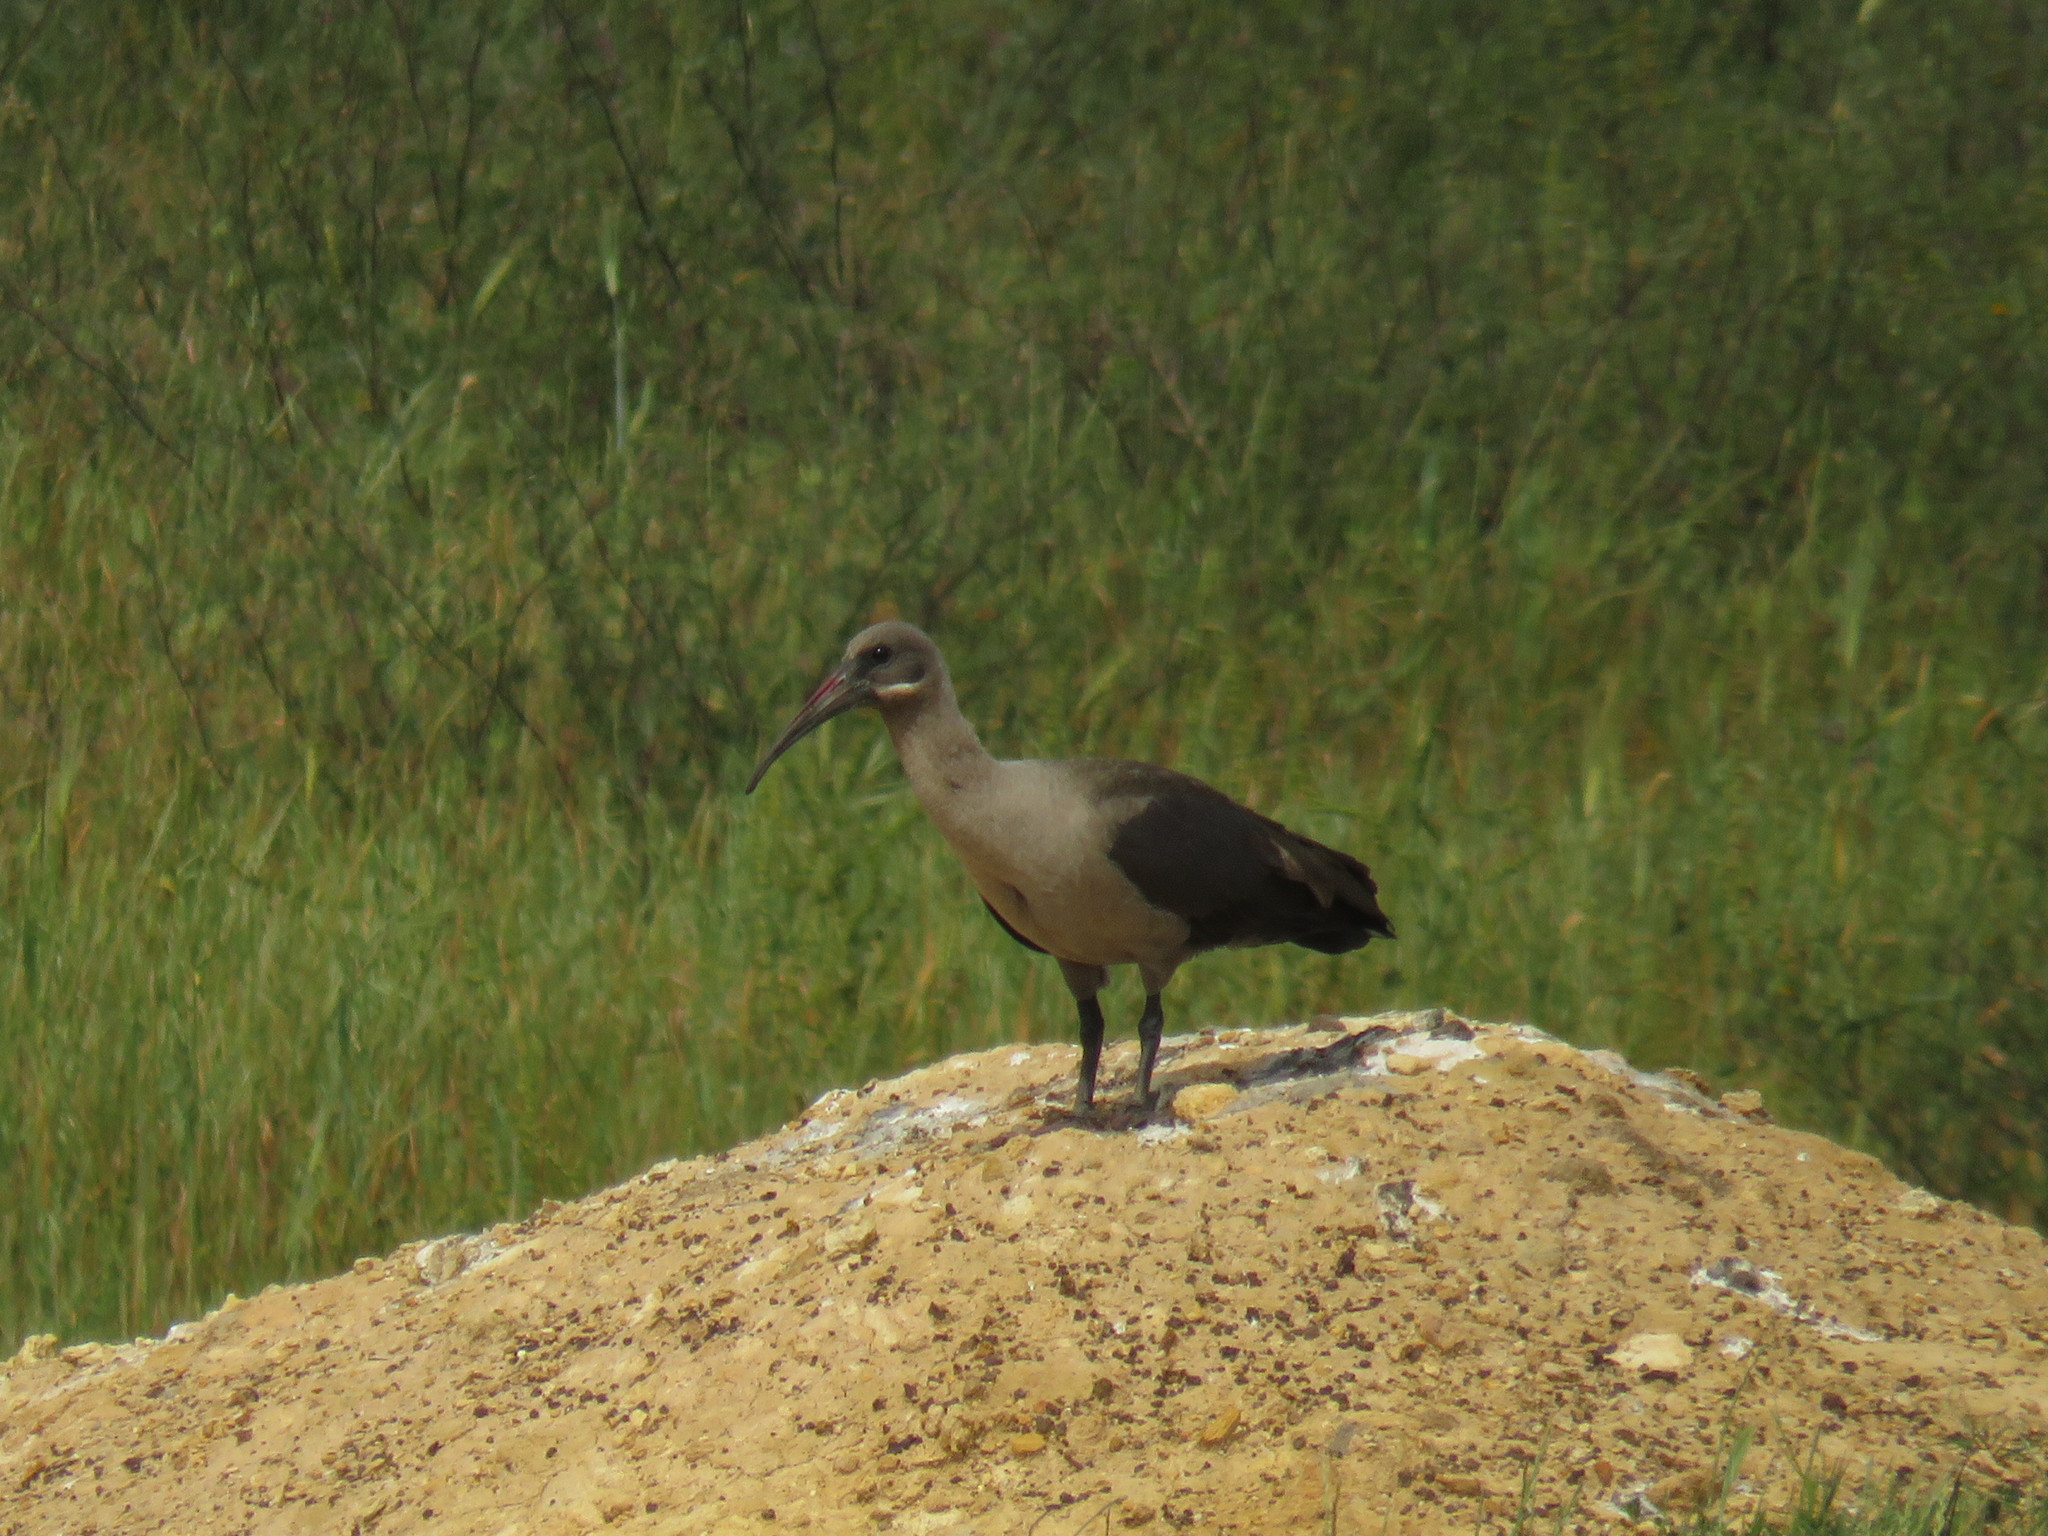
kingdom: Animalia
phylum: Chordata
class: Aves
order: Pelecaniformes
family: Threskiornithidae
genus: Bostrychia
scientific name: Bostrychia hagedash
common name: Hadada ibis
